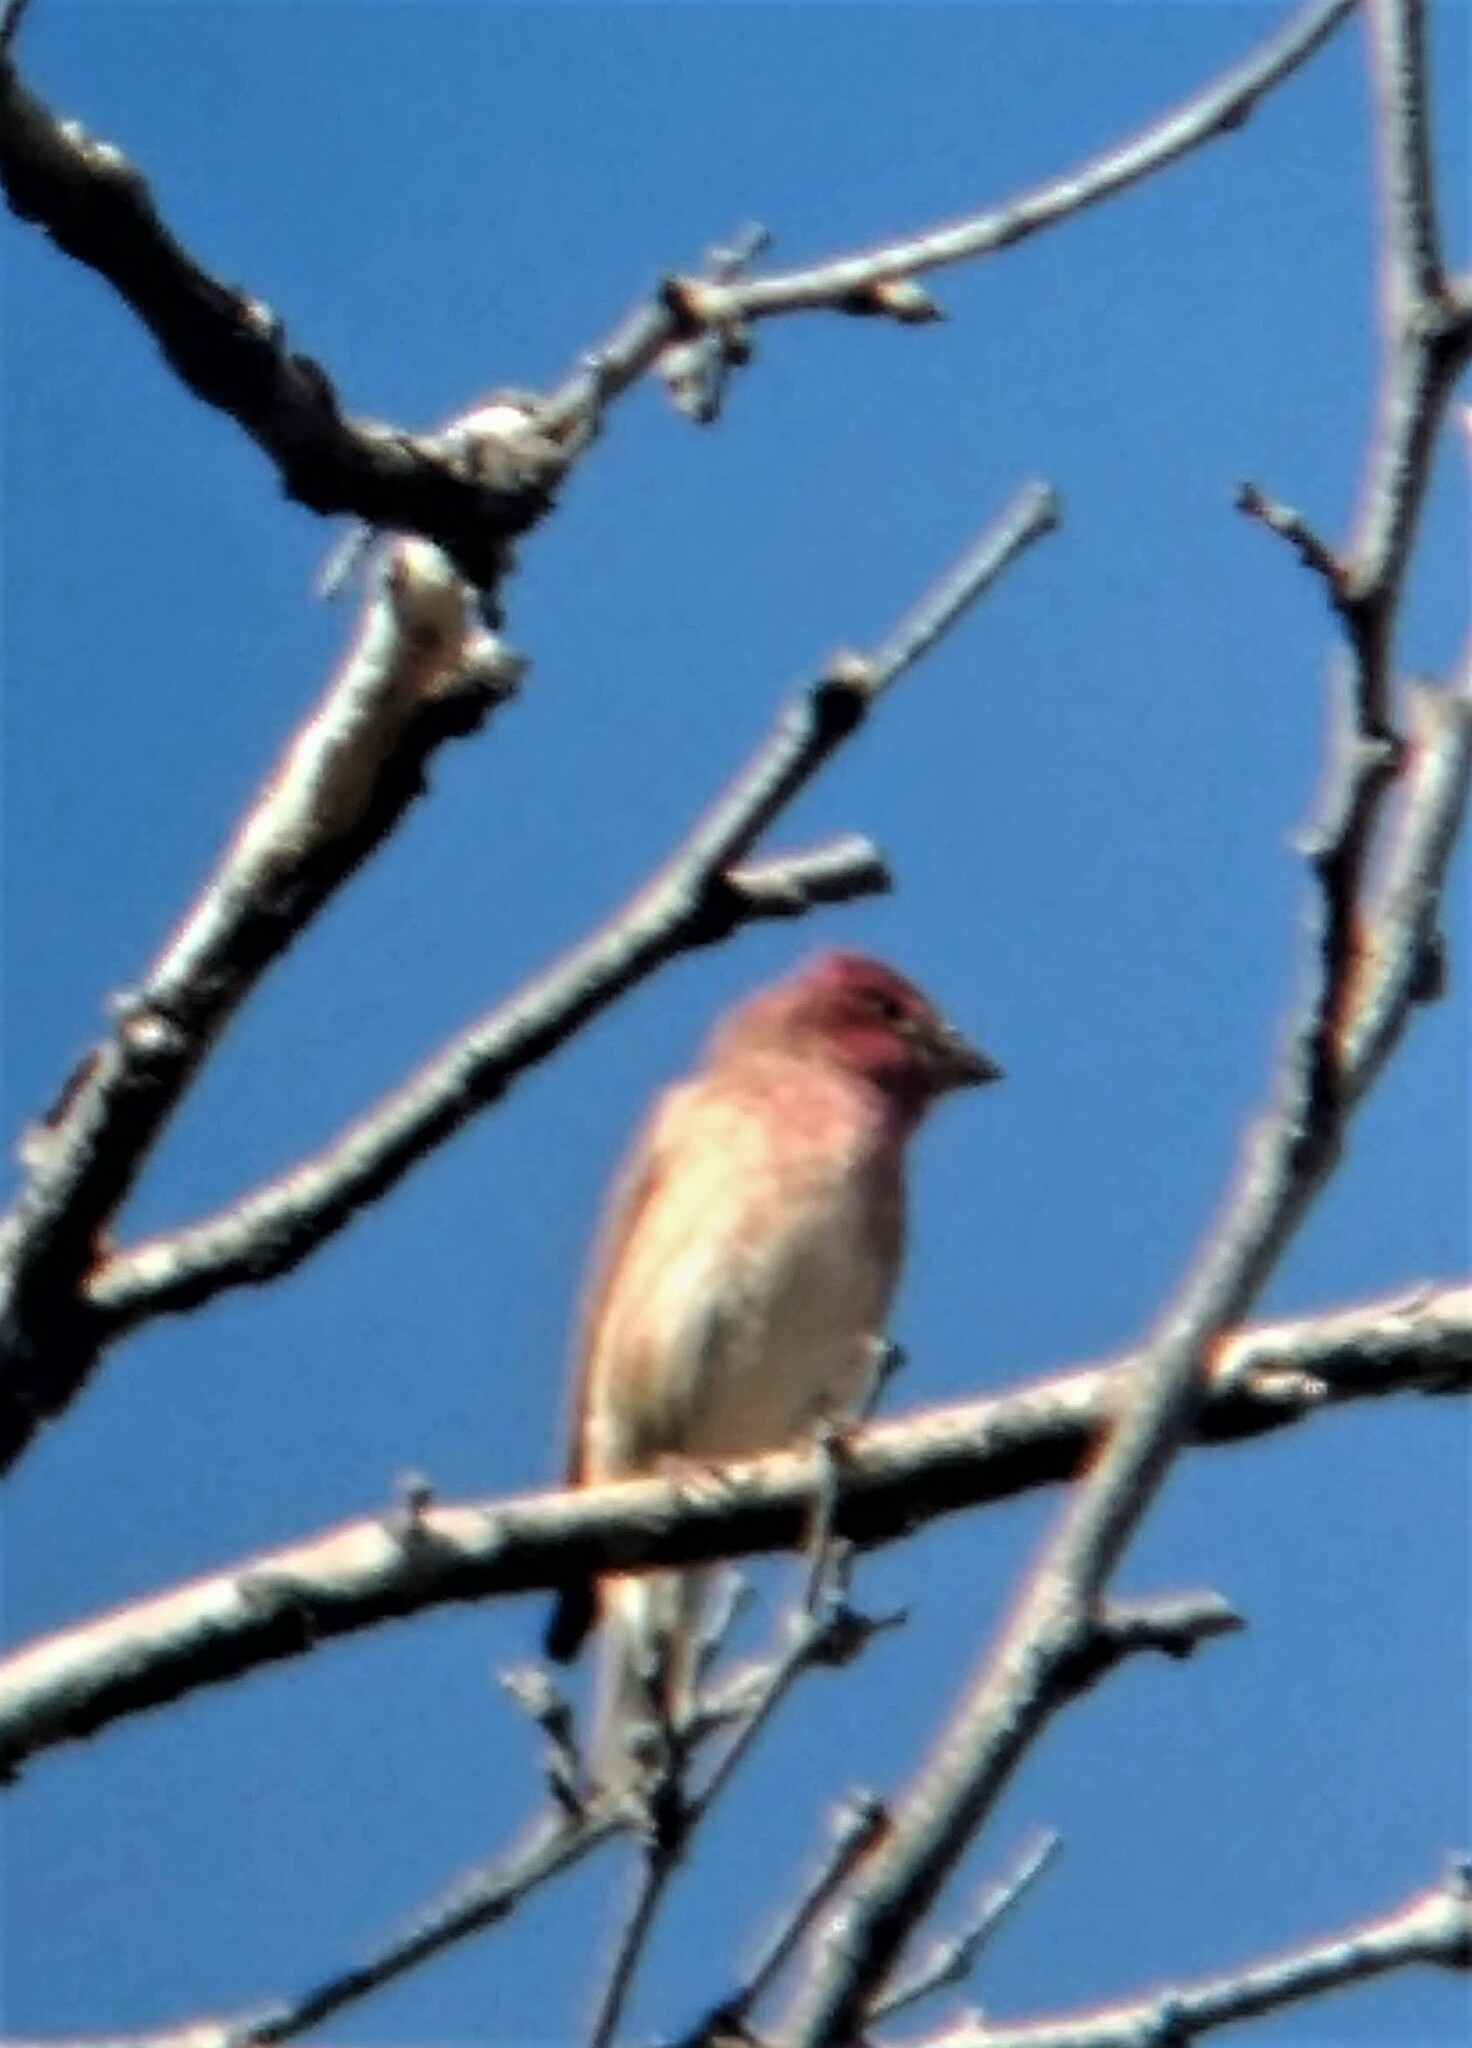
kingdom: Animalia
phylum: Chordata
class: Aves
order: Passeriformes
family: Fringillidae
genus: Haemorhous
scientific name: Haemorhous purpureus
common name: Purple finch
